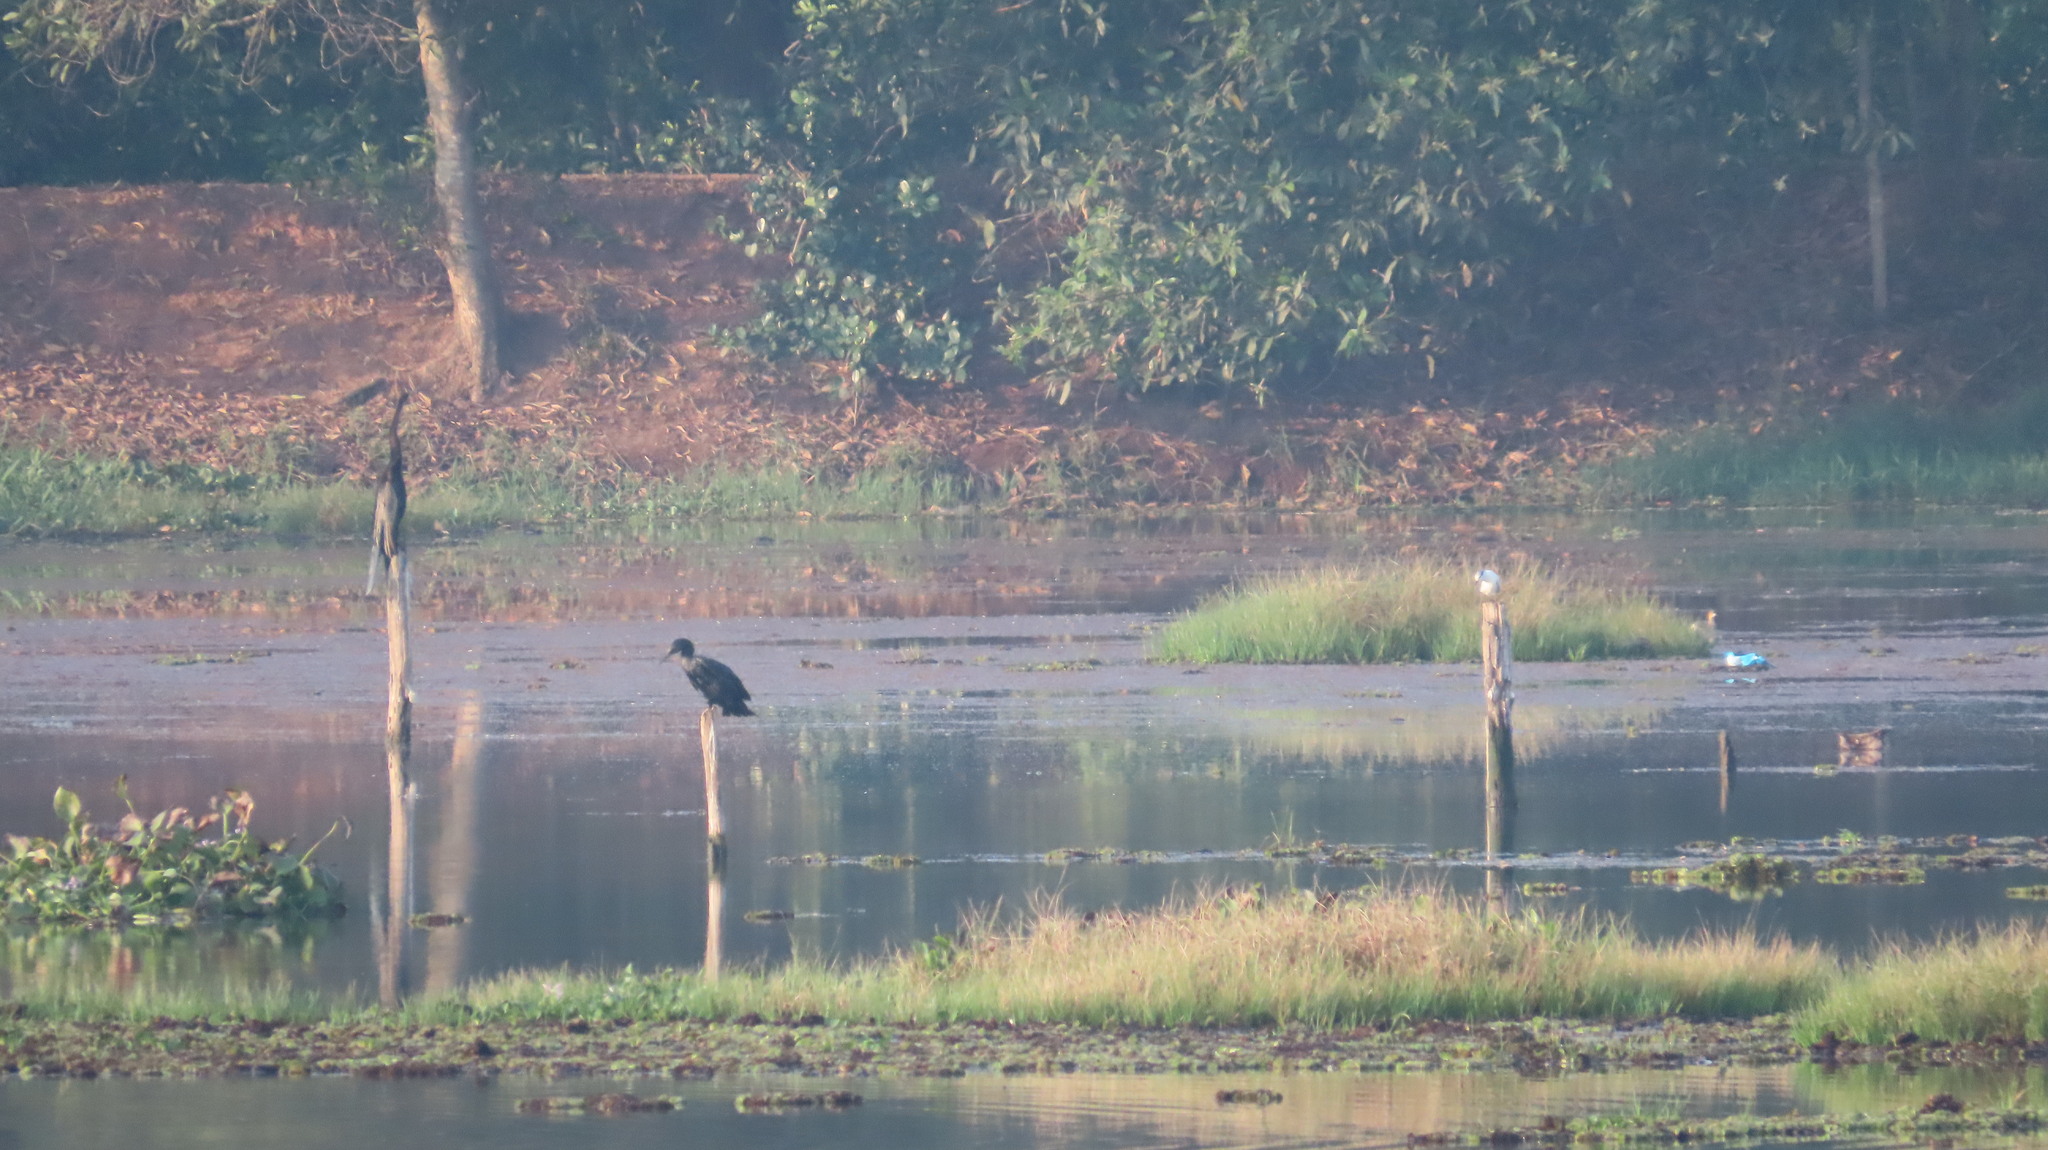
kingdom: Animalia
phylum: Chordata
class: Aves
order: Charadriiformes
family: Laridae
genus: Chlidonias
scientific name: Chlidonias hybrida
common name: Whiskered tern
